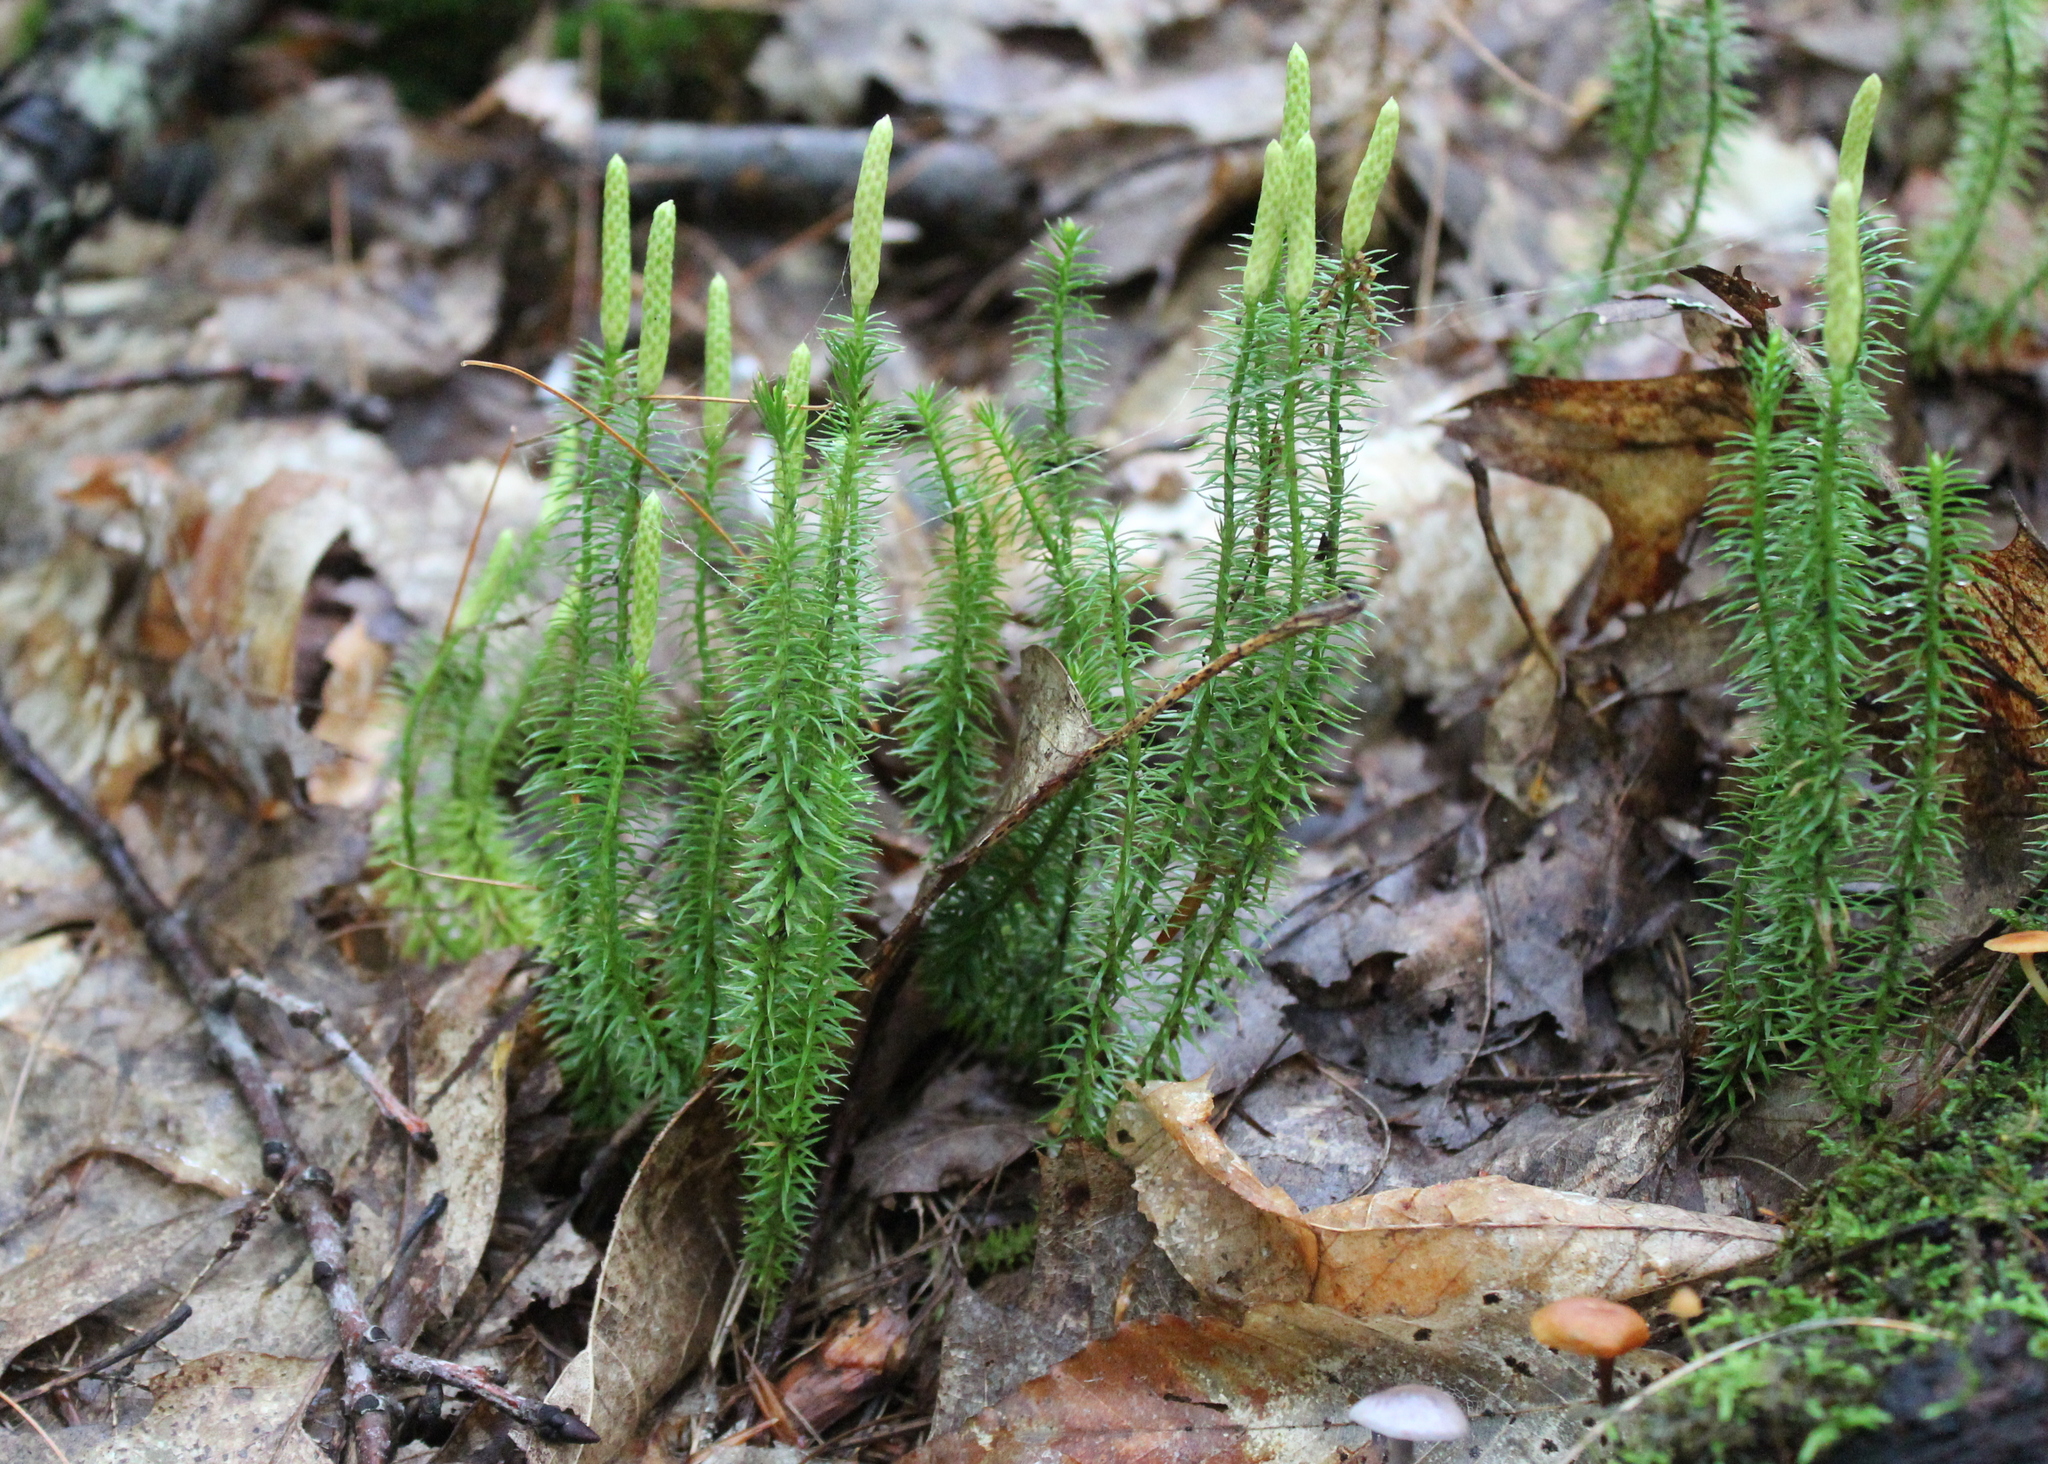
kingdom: Plantae
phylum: Tracheophyta
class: Lycopodiopsida
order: Lycopodiales
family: Lycopodiaceae
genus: Spinulum
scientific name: Spinulum annotinum
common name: Interrupted club-moss
